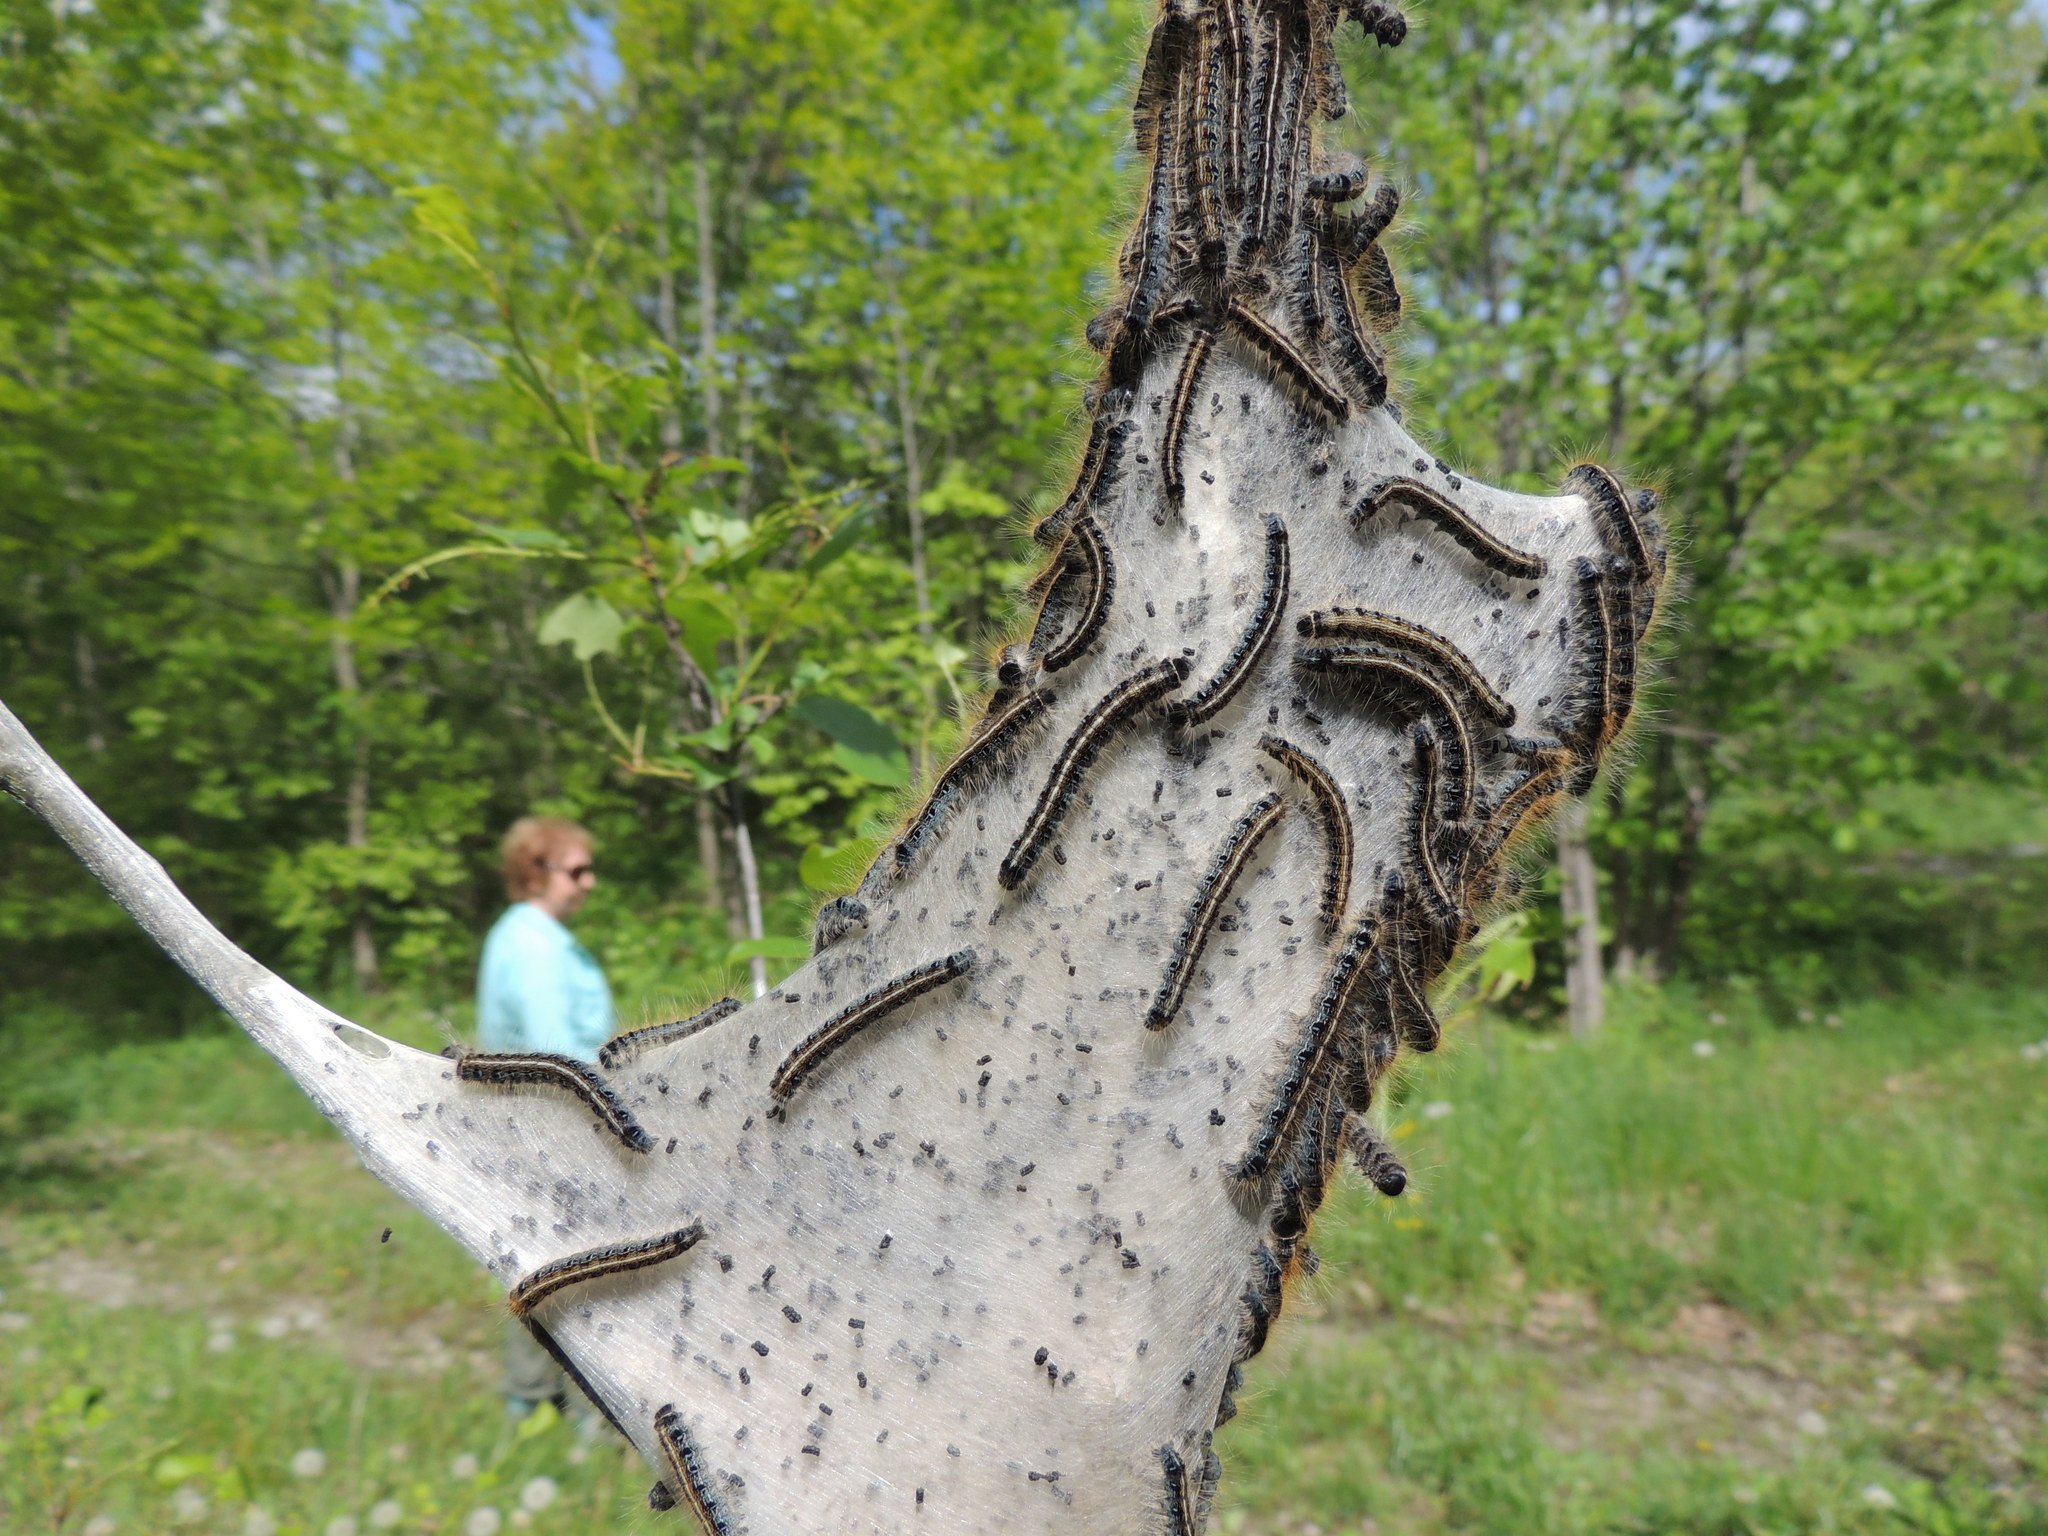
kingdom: Animalia
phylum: Arthropoda
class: Insecta
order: Lepidoptera
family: Lasiocampidae
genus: Malacosoma
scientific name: Malacosoma americana
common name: Eastern tent caterpillar moth
